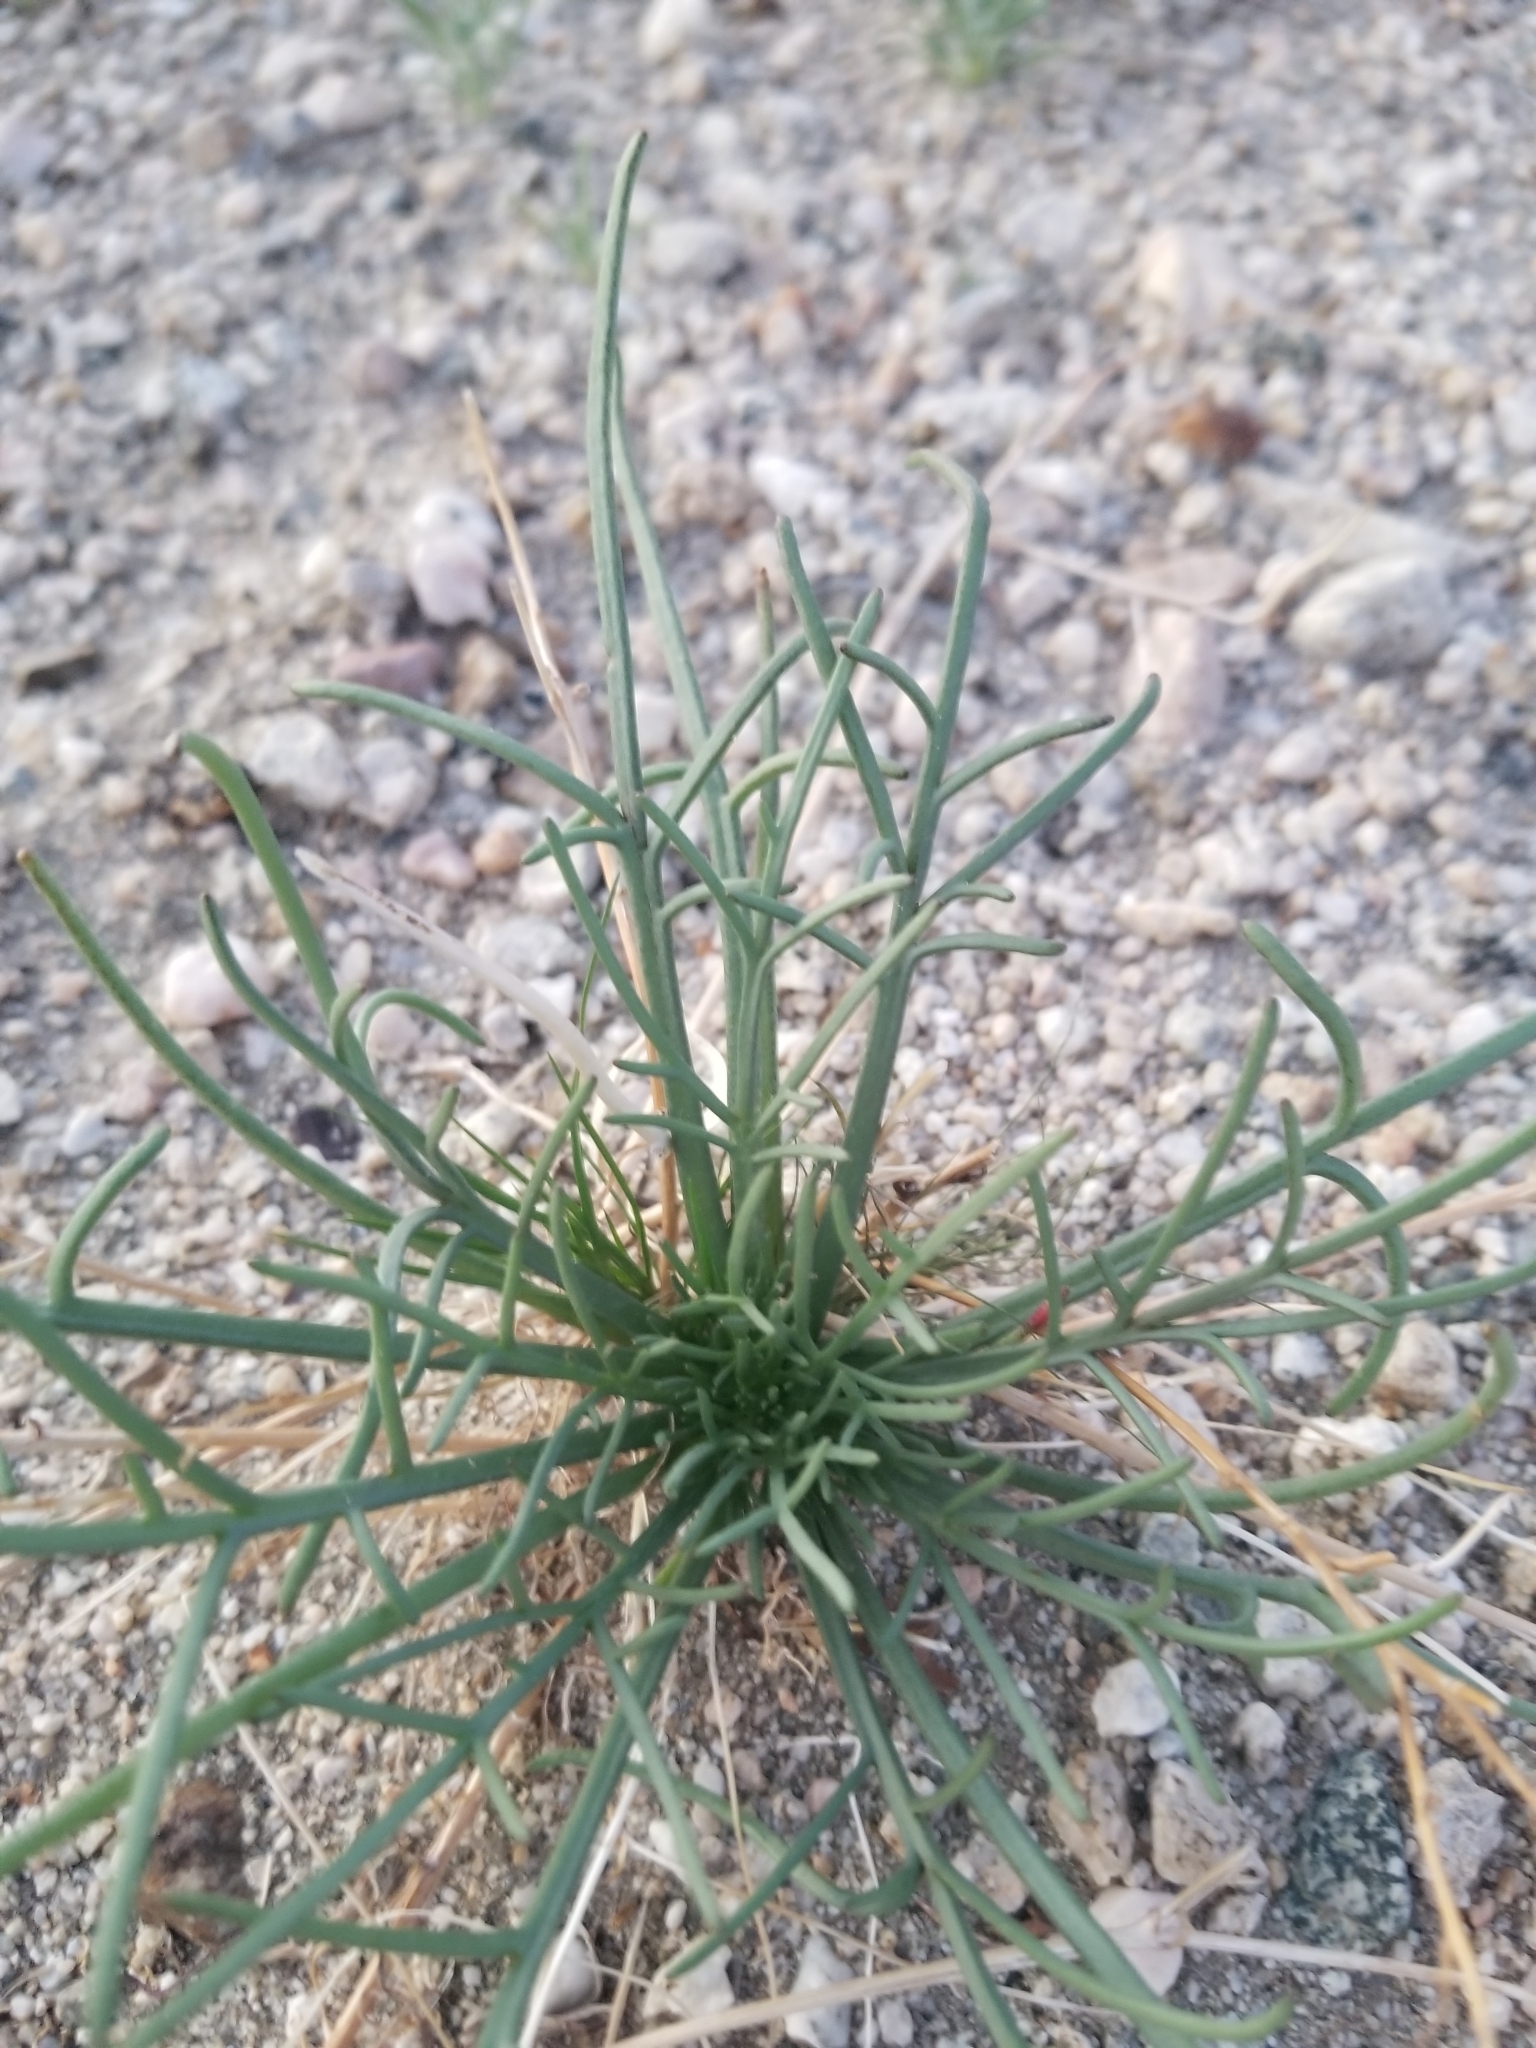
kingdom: Plantae
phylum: Tracheophyta
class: Magnoliopsida
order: Asterales
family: Asteraceae
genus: Chaenactis
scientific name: Chaenactis fremontii
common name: Fremont pincushion
